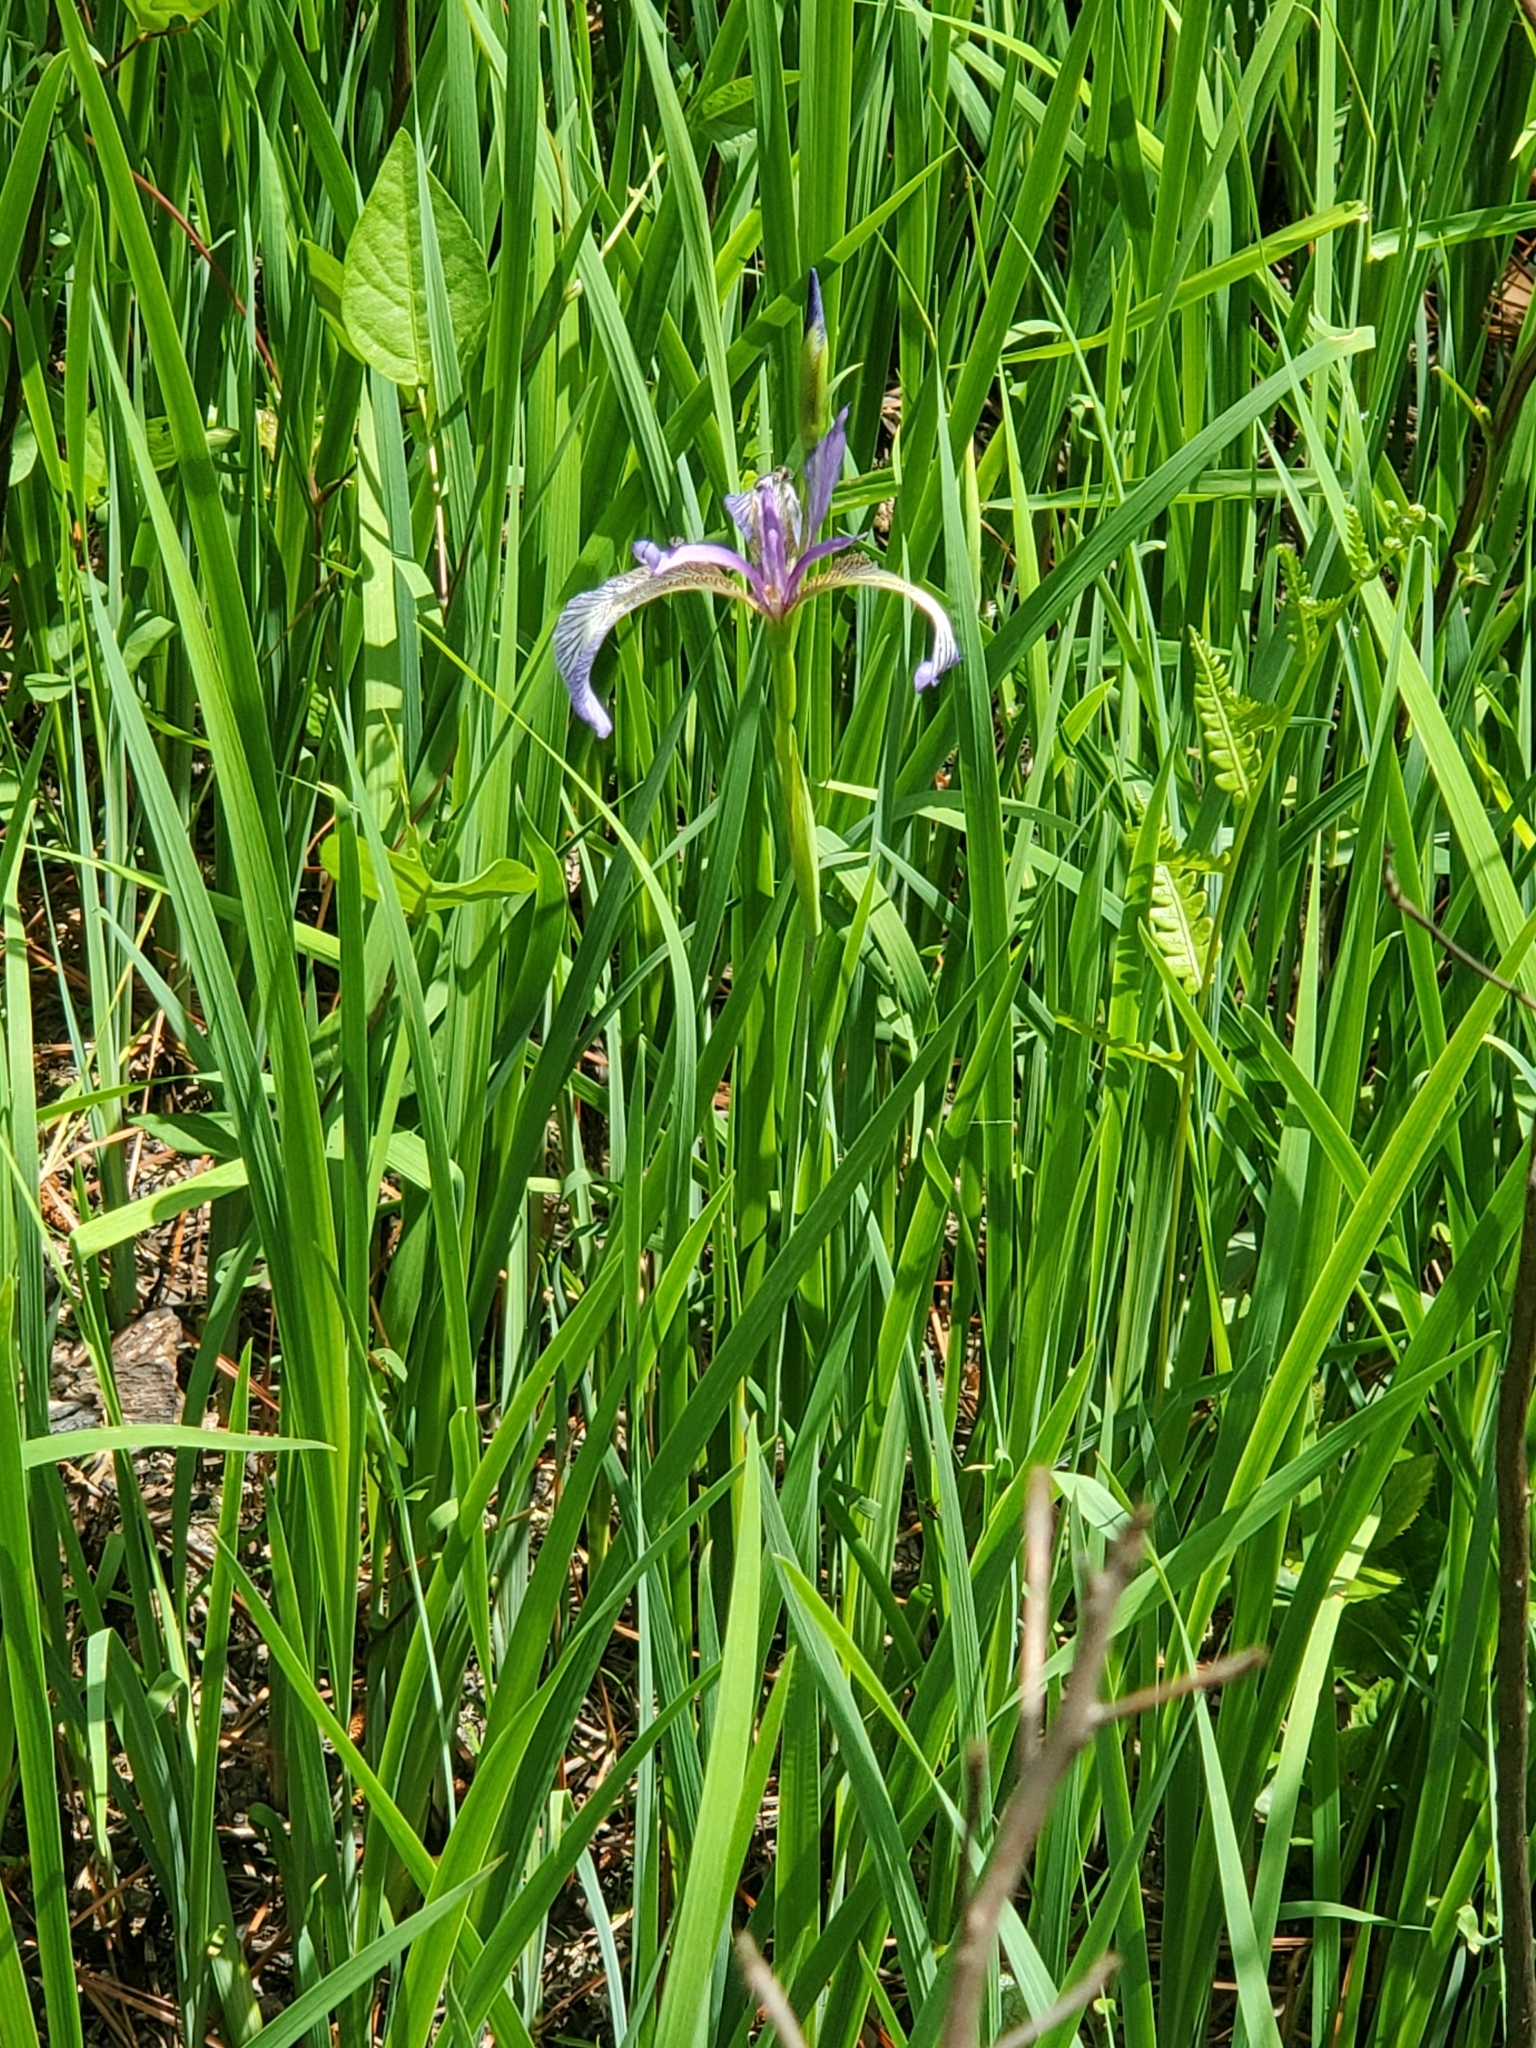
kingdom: Plantae
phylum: Tracheophyta
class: Liliopsida
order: Asparagales
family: Iridaceae
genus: Iris
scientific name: Iris prismatica
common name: Slender blue flag
